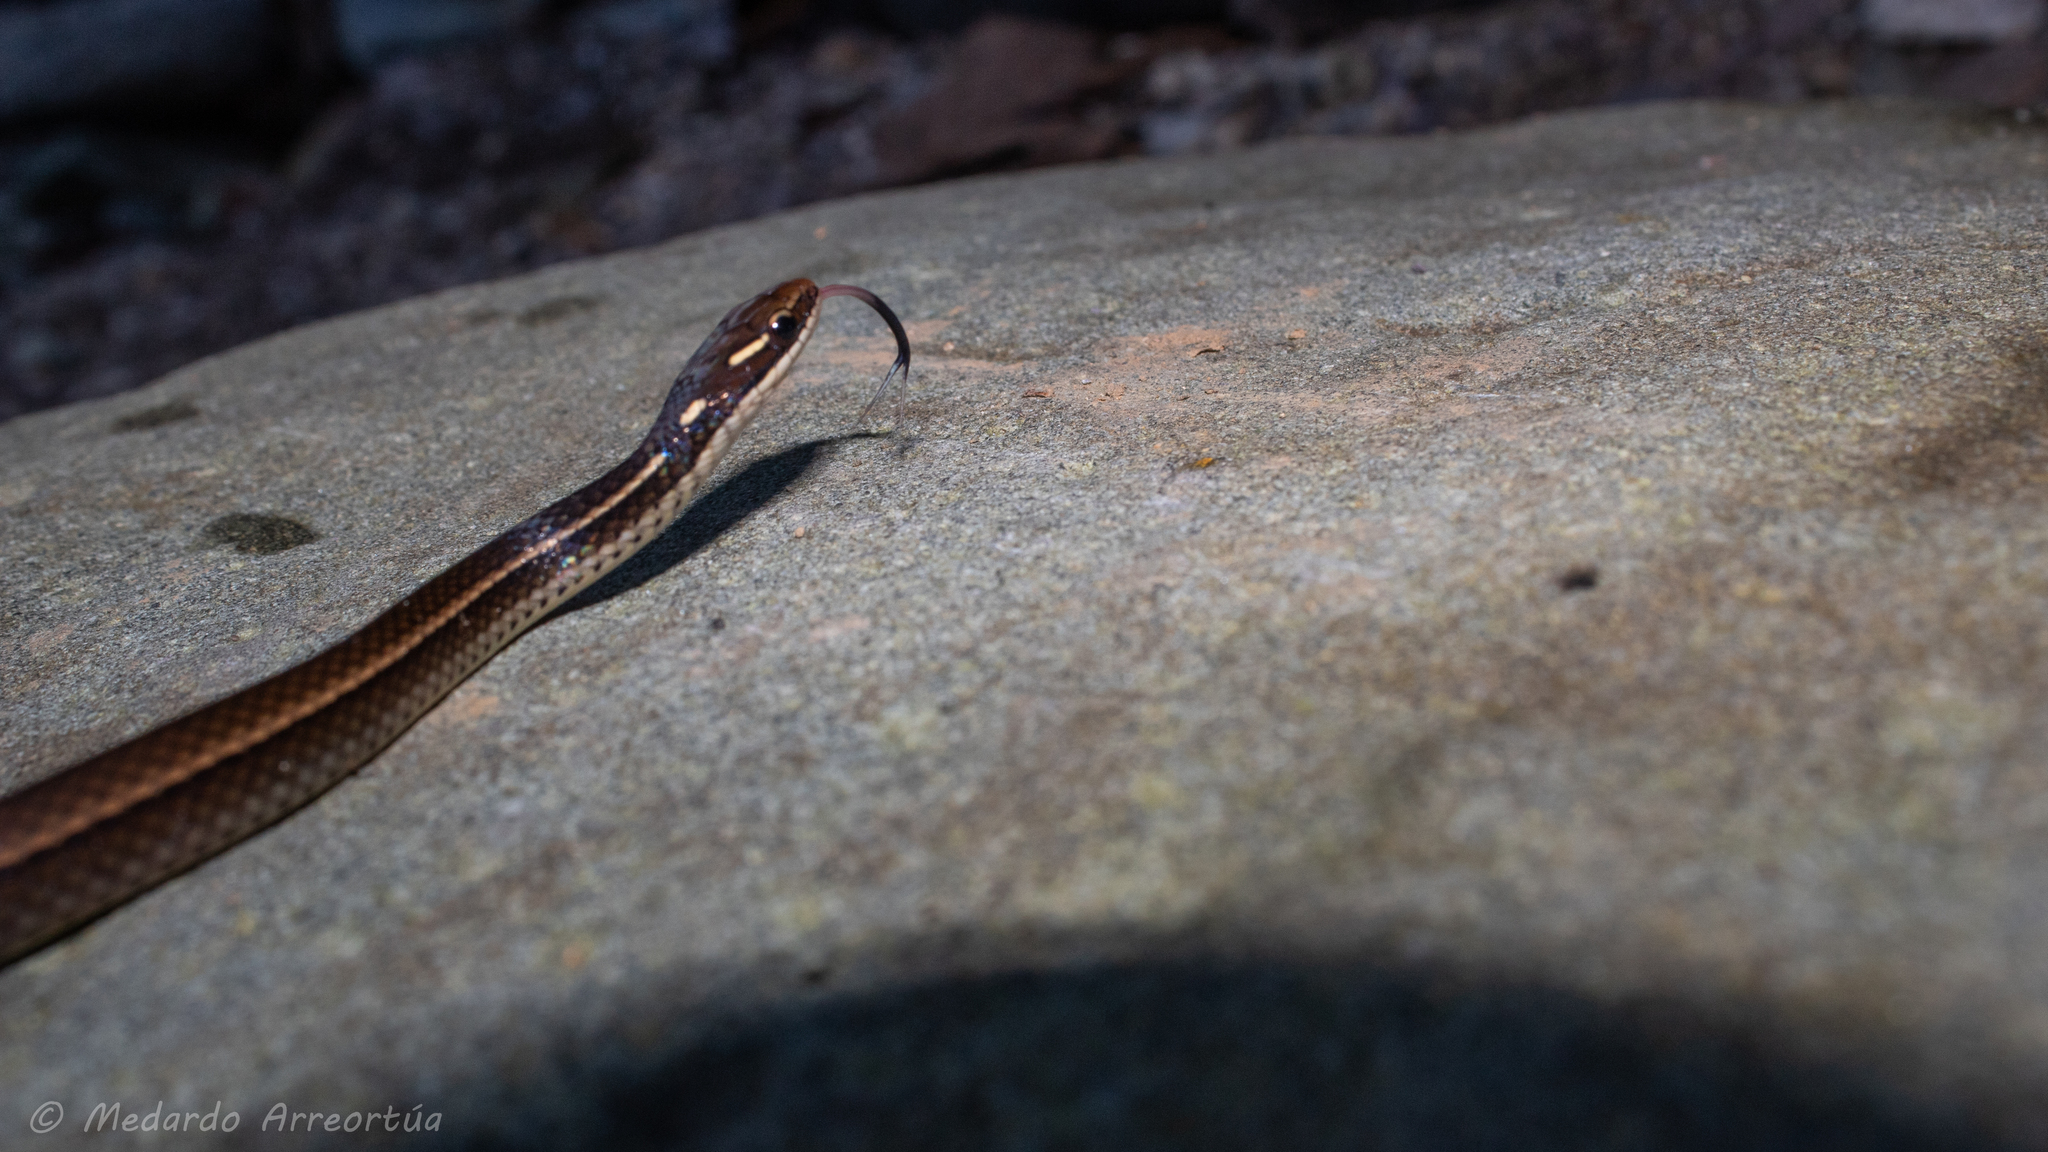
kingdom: Animalia
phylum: Chordata
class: Squamata
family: Colubridae
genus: Rhadinaea
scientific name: Rhadinaea decorata
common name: Adorned graceful brown snake
